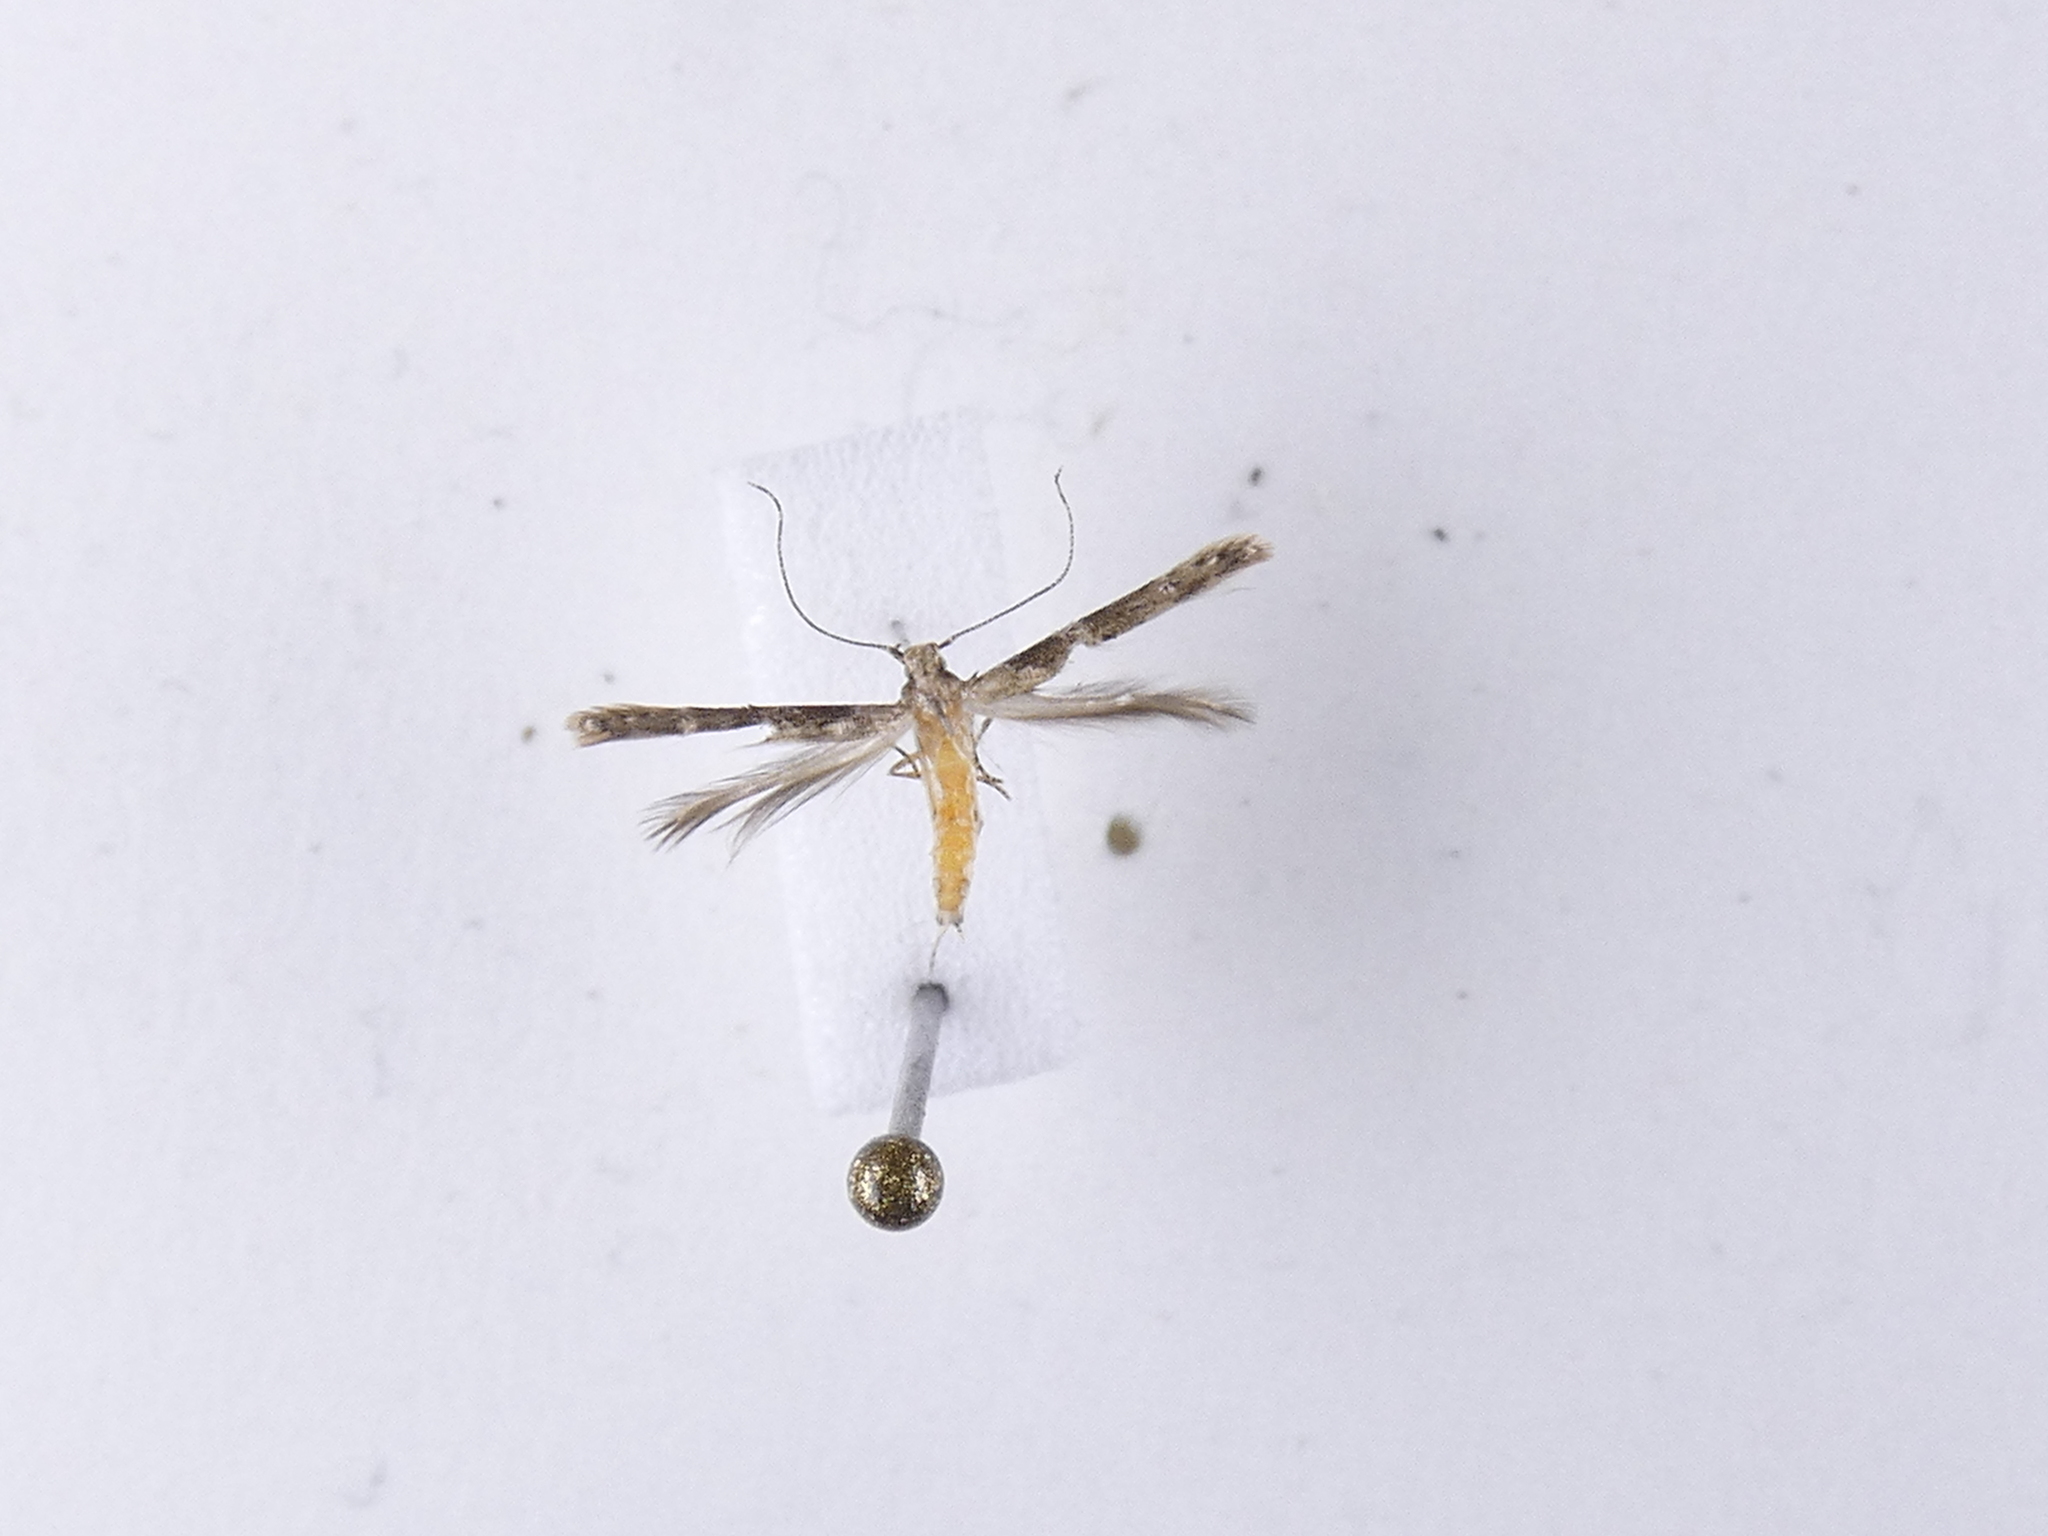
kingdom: Animalia
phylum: Arthropoda
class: Insecta
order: Lepidoptera
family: Elachistidae
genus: Microcolona
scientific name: Microcolona limodes
